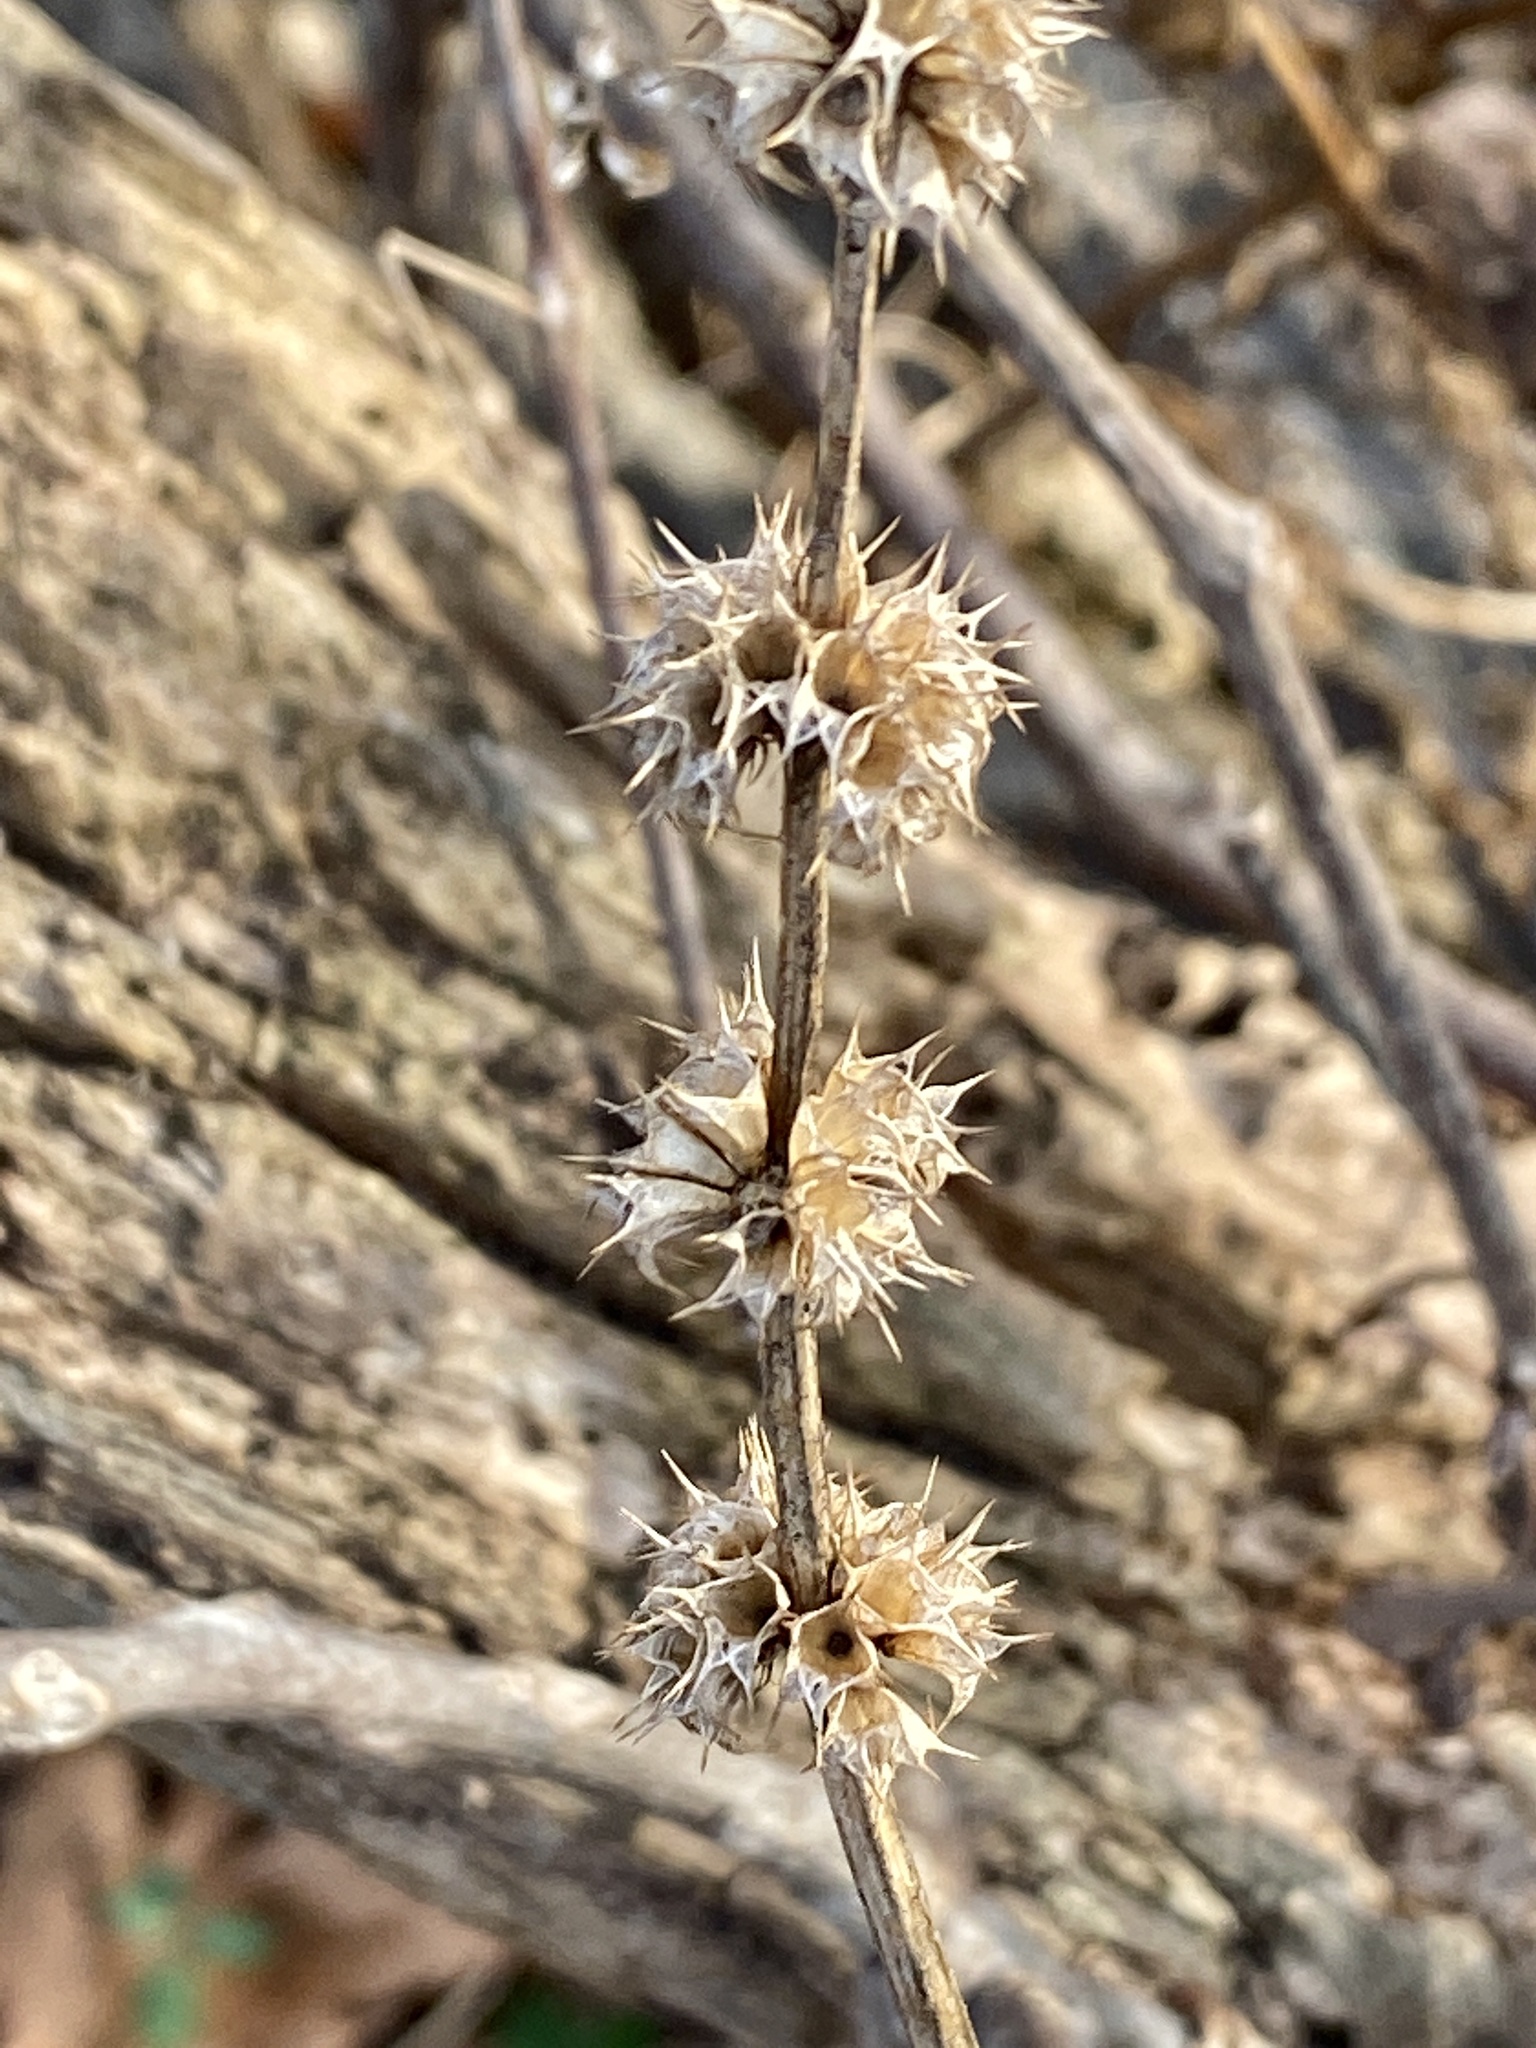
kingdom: Plantae
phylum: Tracheophyta
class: Magnoliopsida
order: Lamiales
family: Lamiaceae
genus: Leonurus
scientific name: Leonurus cardiaca
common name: Motherwort
